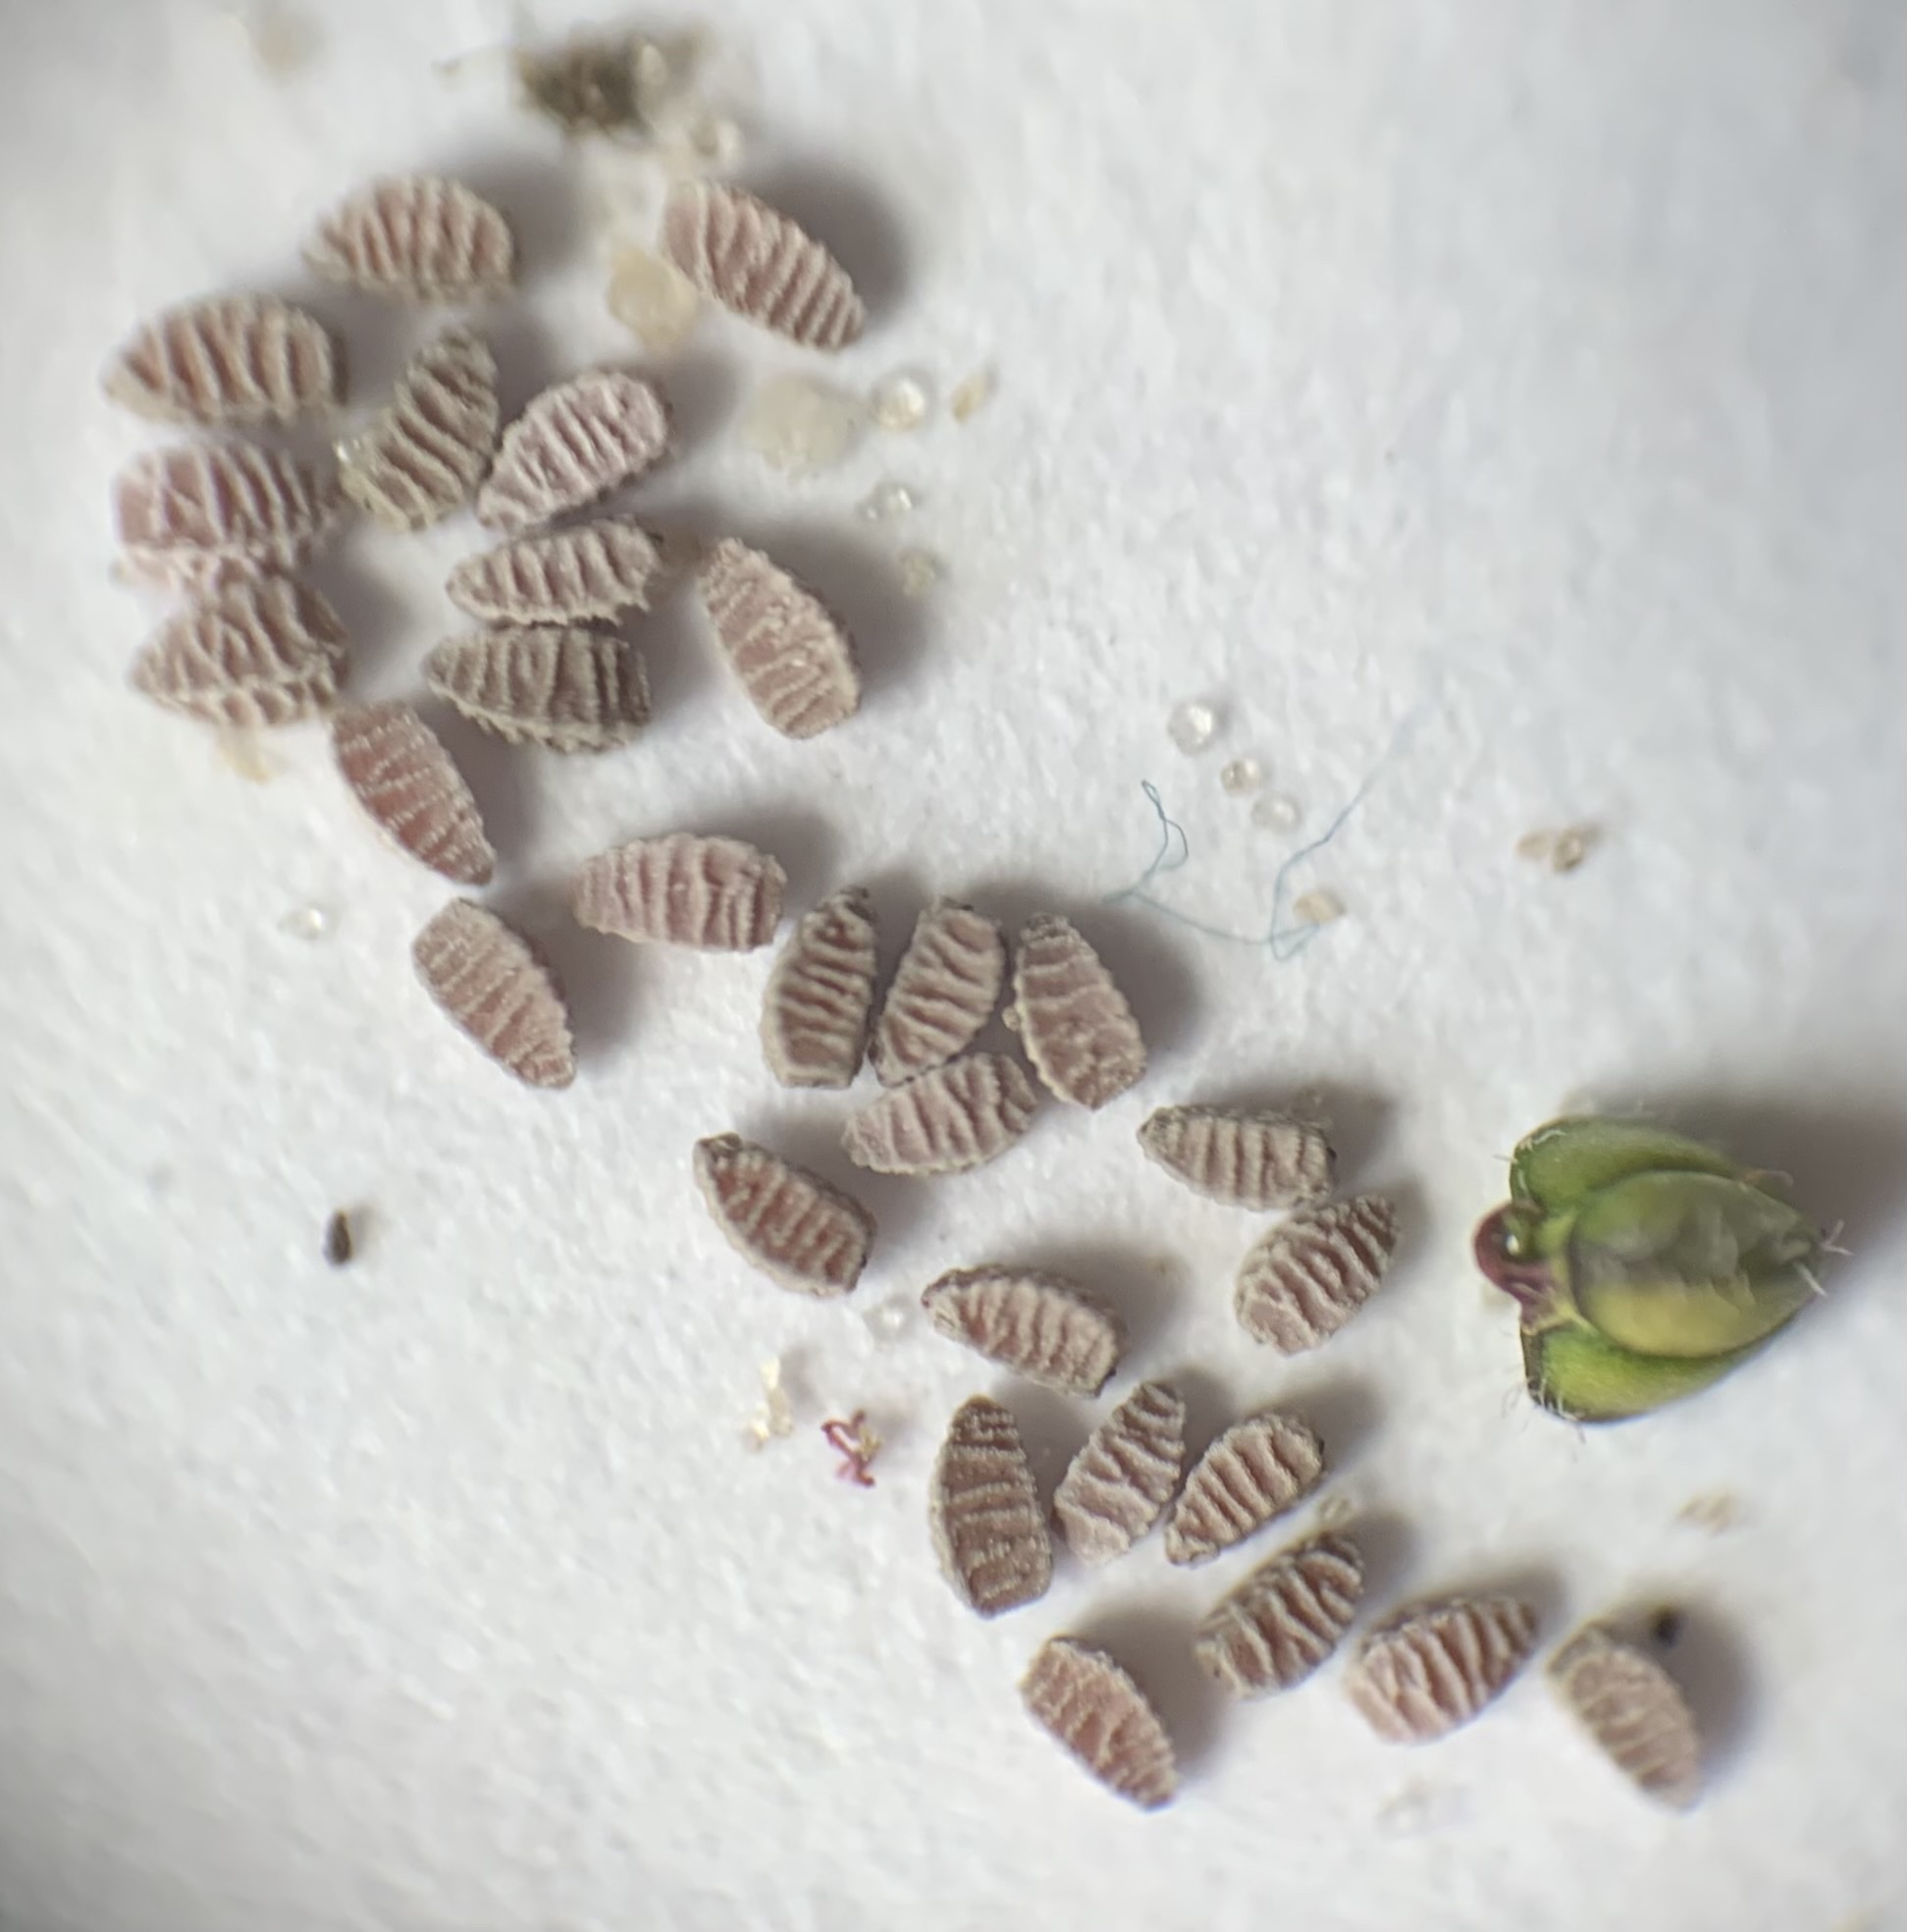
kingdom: Plantae
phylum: Tracheophyta
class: Magnoliopsida
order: Malpighiales
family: Euphorbiaceae
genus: Euphorbia
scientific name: Euphorbia prostrata
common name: Prostrate sandmat
